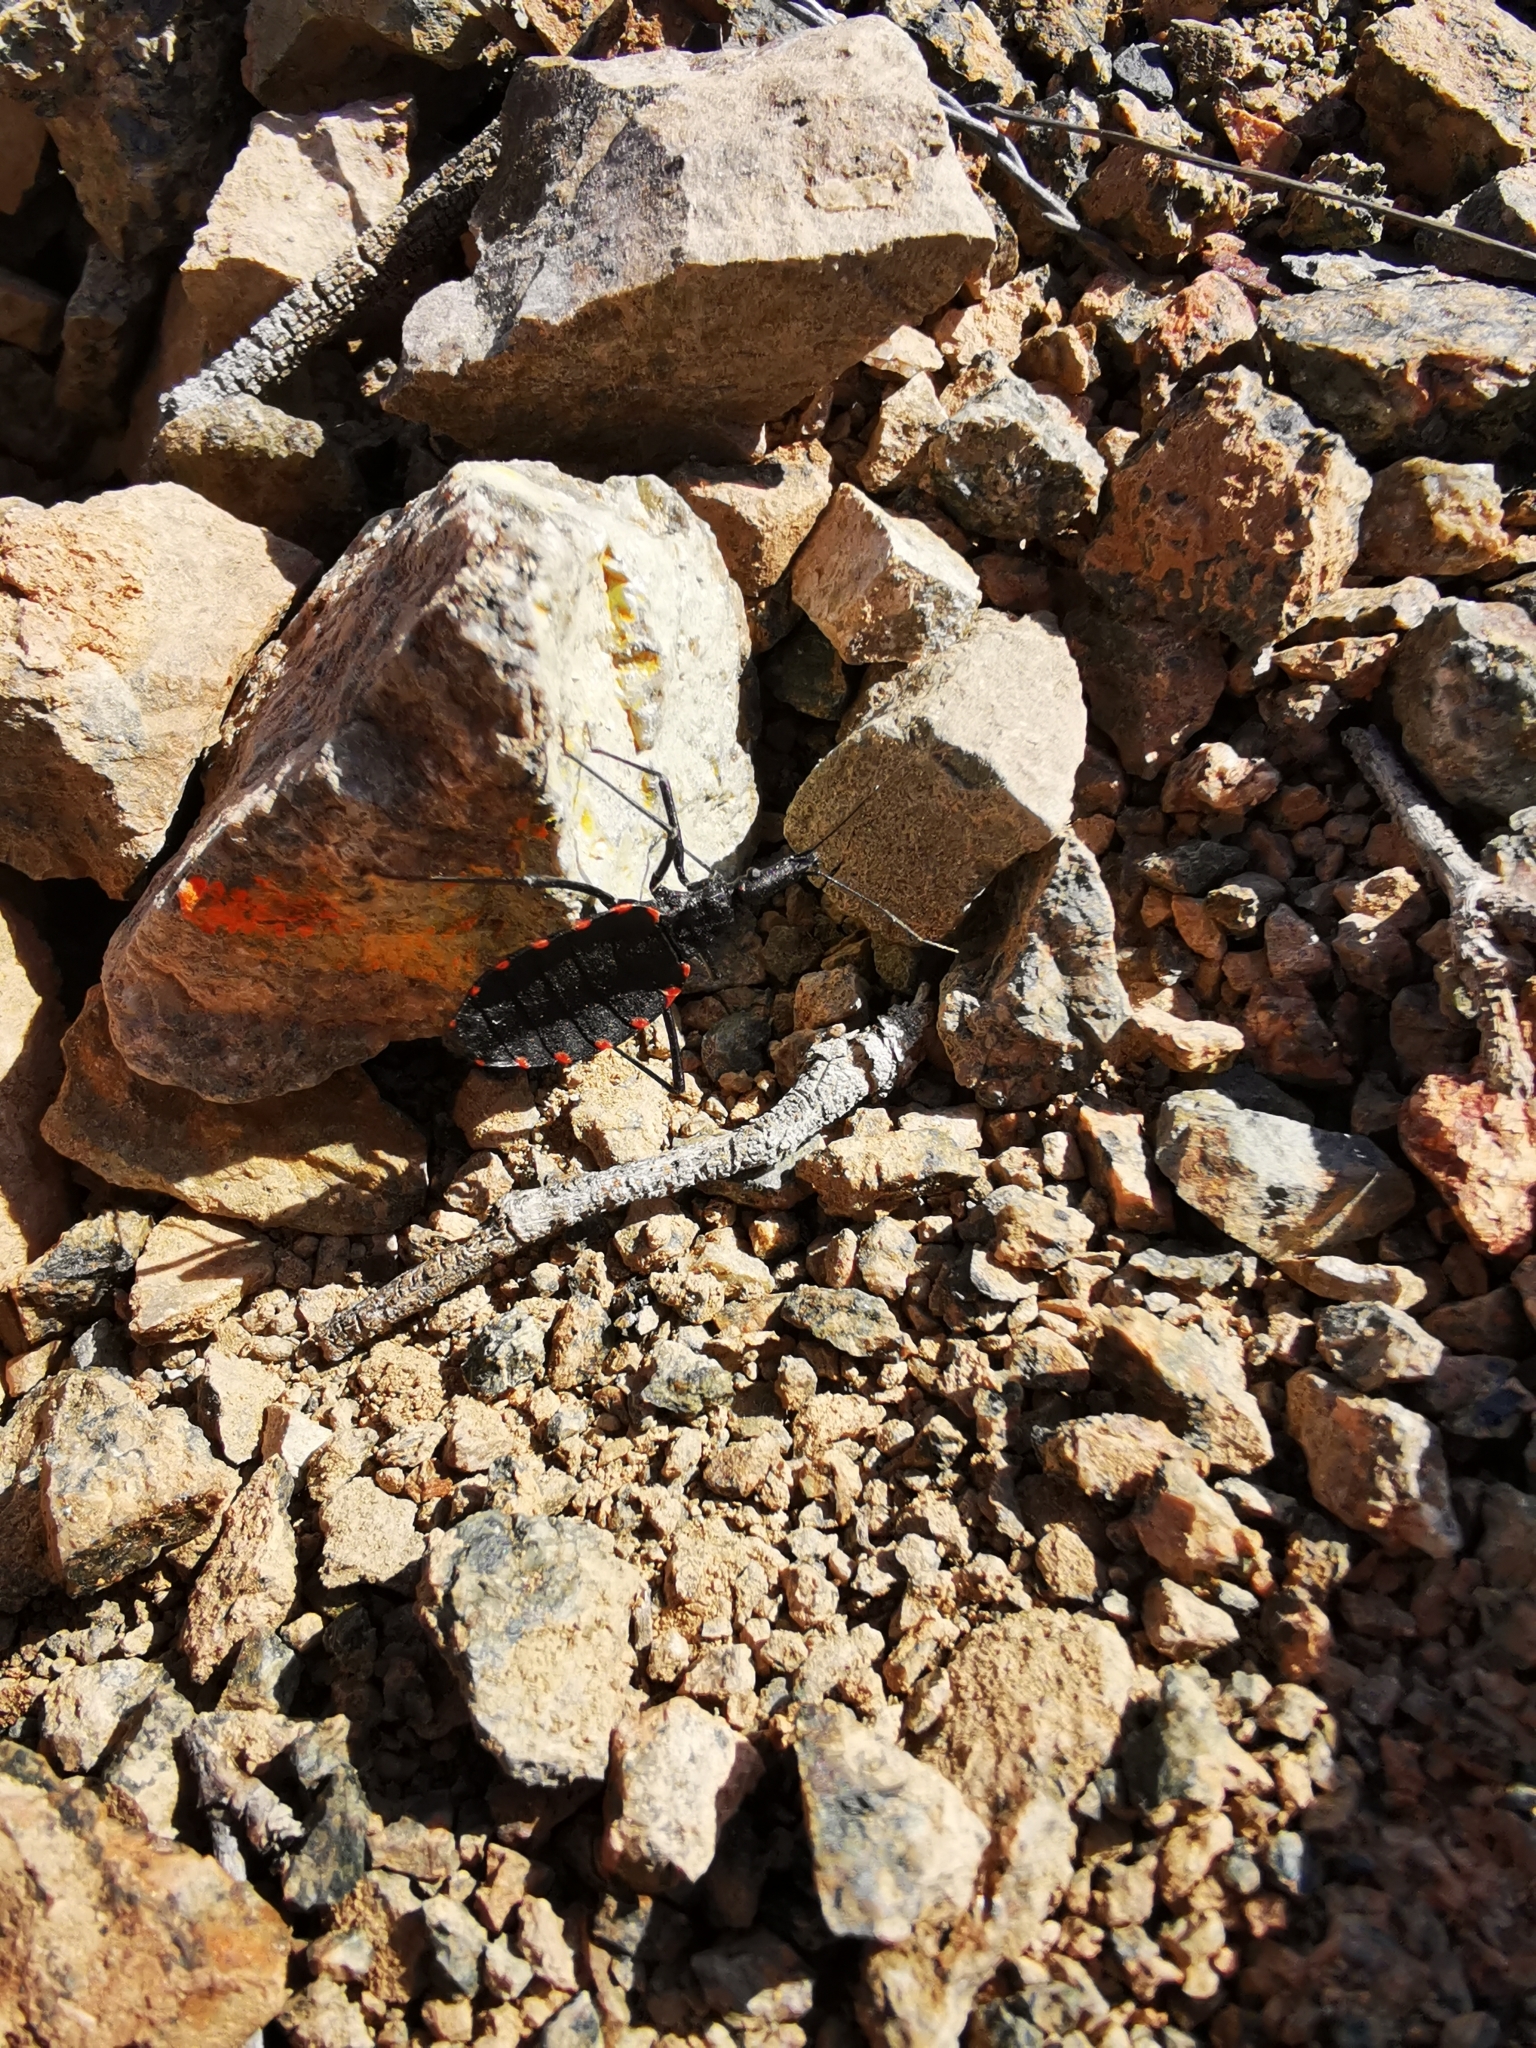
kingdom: Animalia
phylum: Arthropoda
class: Insecta
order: Hemiptera
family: Reduviidae
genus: Mepraia
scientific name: Mepraia gajardoi
